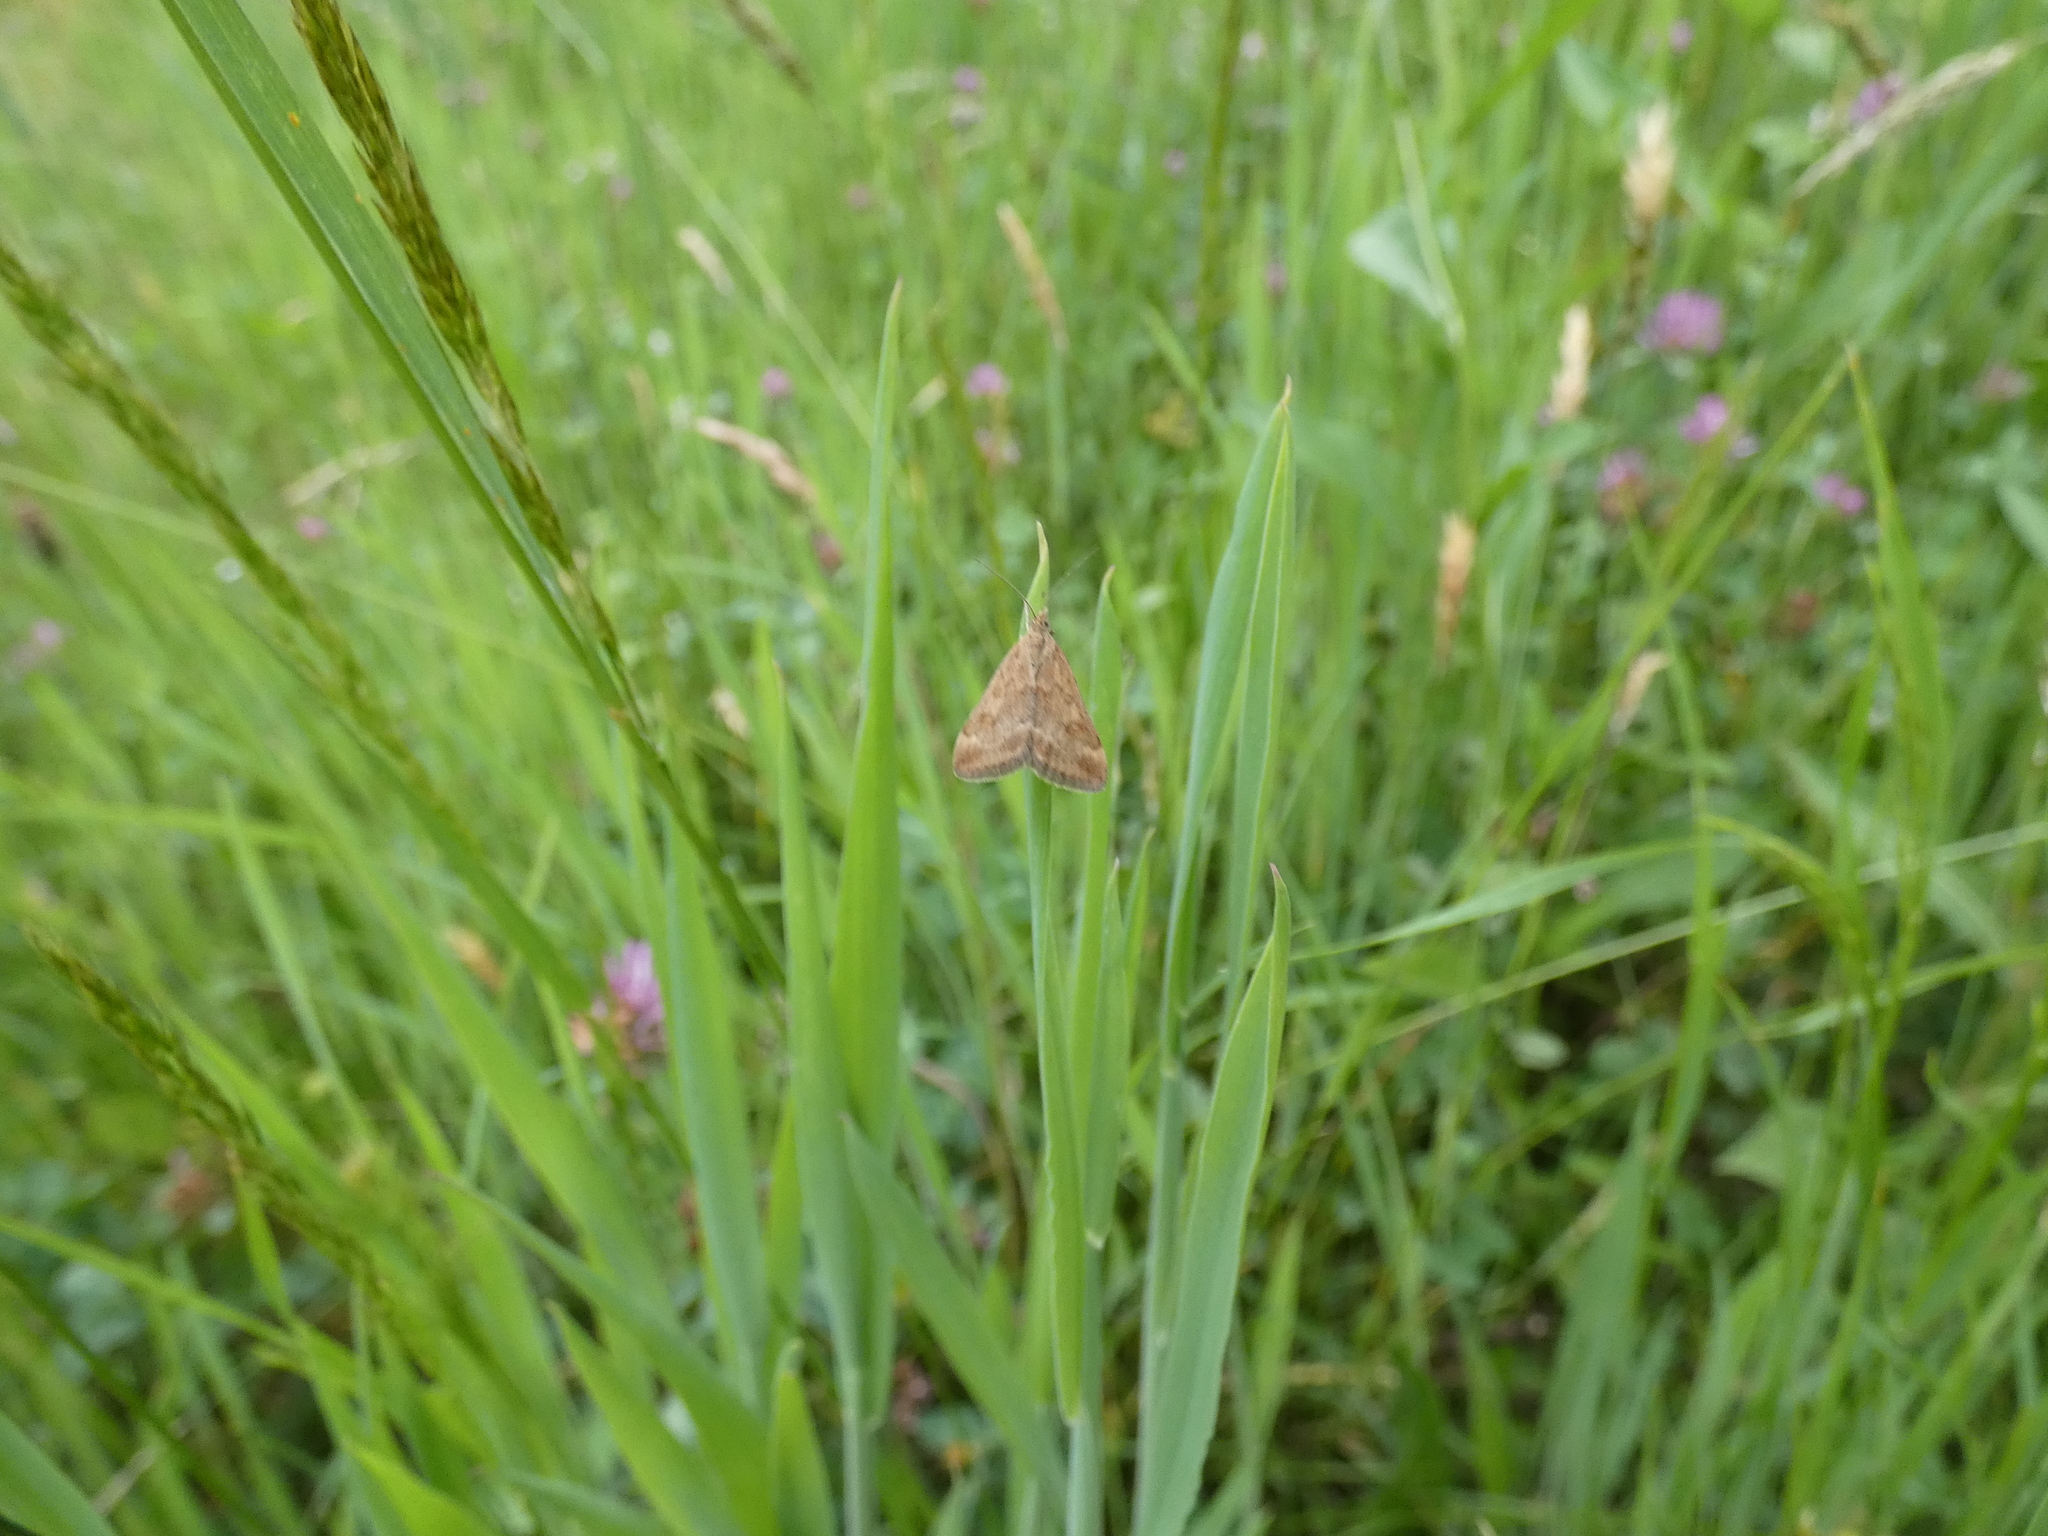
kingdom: Animalia
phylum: Arthropoda
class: Insecta
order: Lepidoptera
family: Crambidae
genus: Pyrausta
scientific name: Pyrausta despicata
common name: Straw-barred pearl
